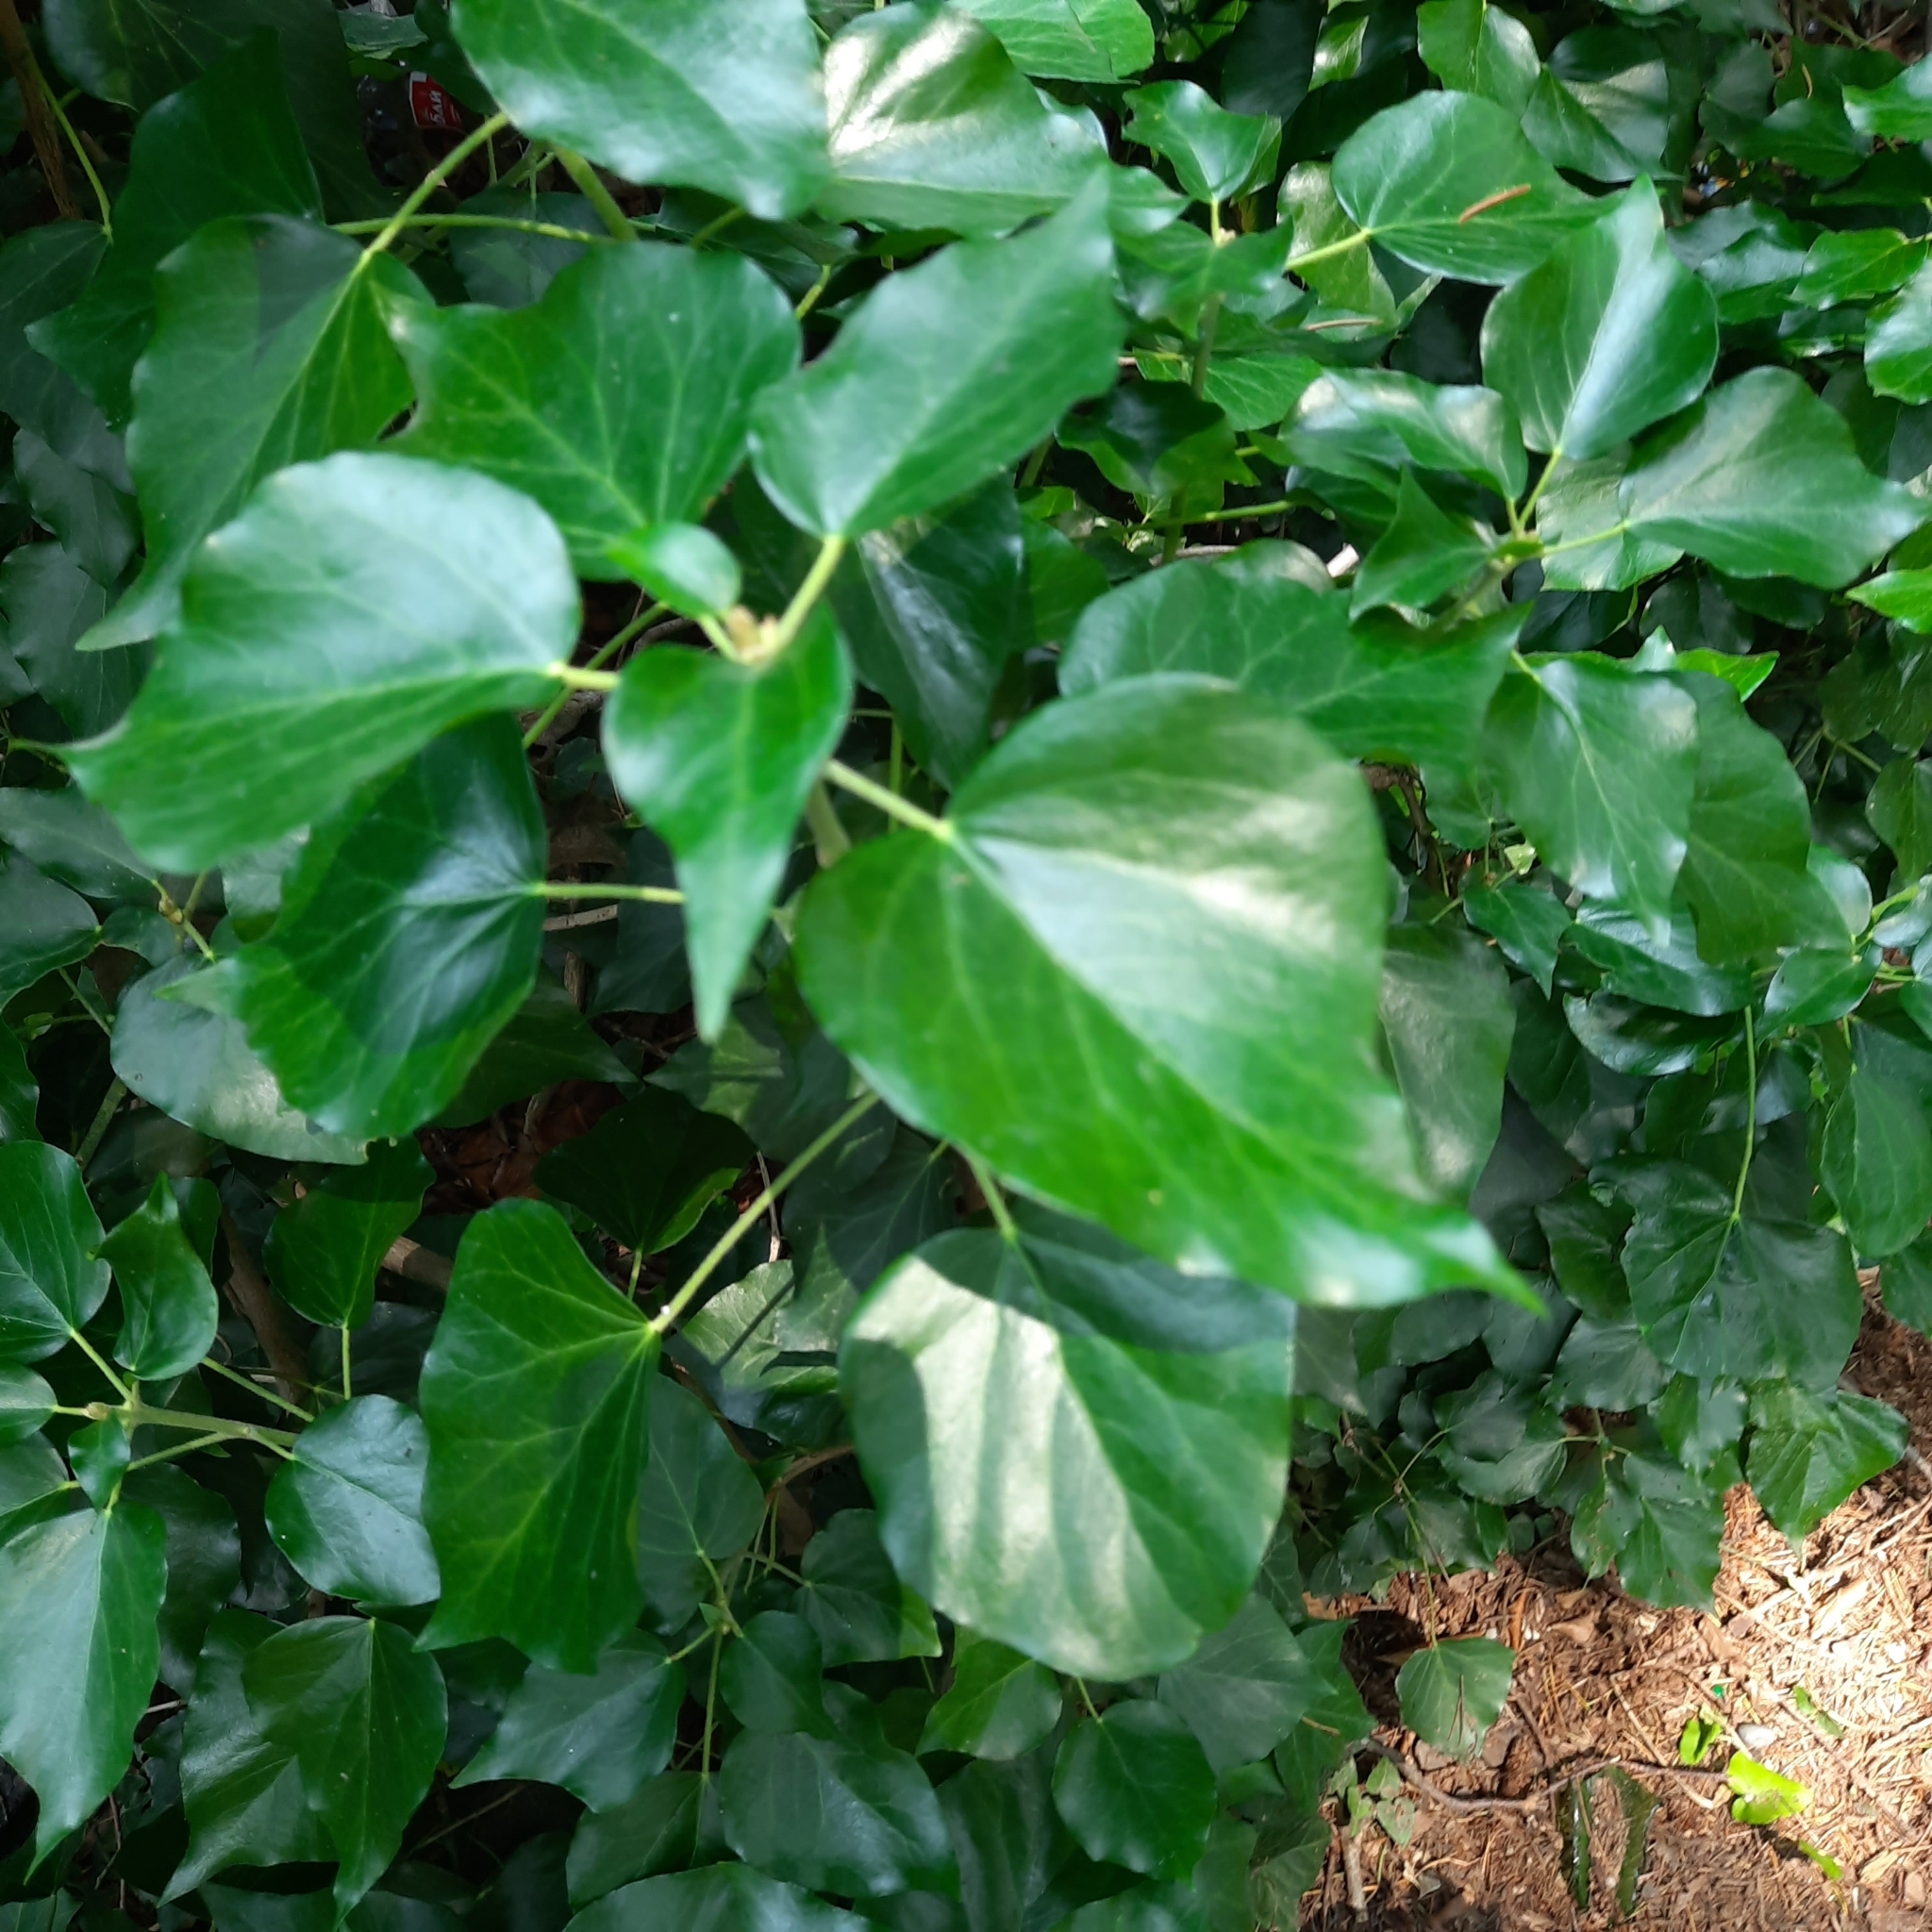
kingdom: Plantae
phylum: Tracheophyta
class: Magnoliopsida
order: Apiales
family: Araliaceae
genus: Hedera
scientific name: Hedera colchica
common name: Persian ivy
